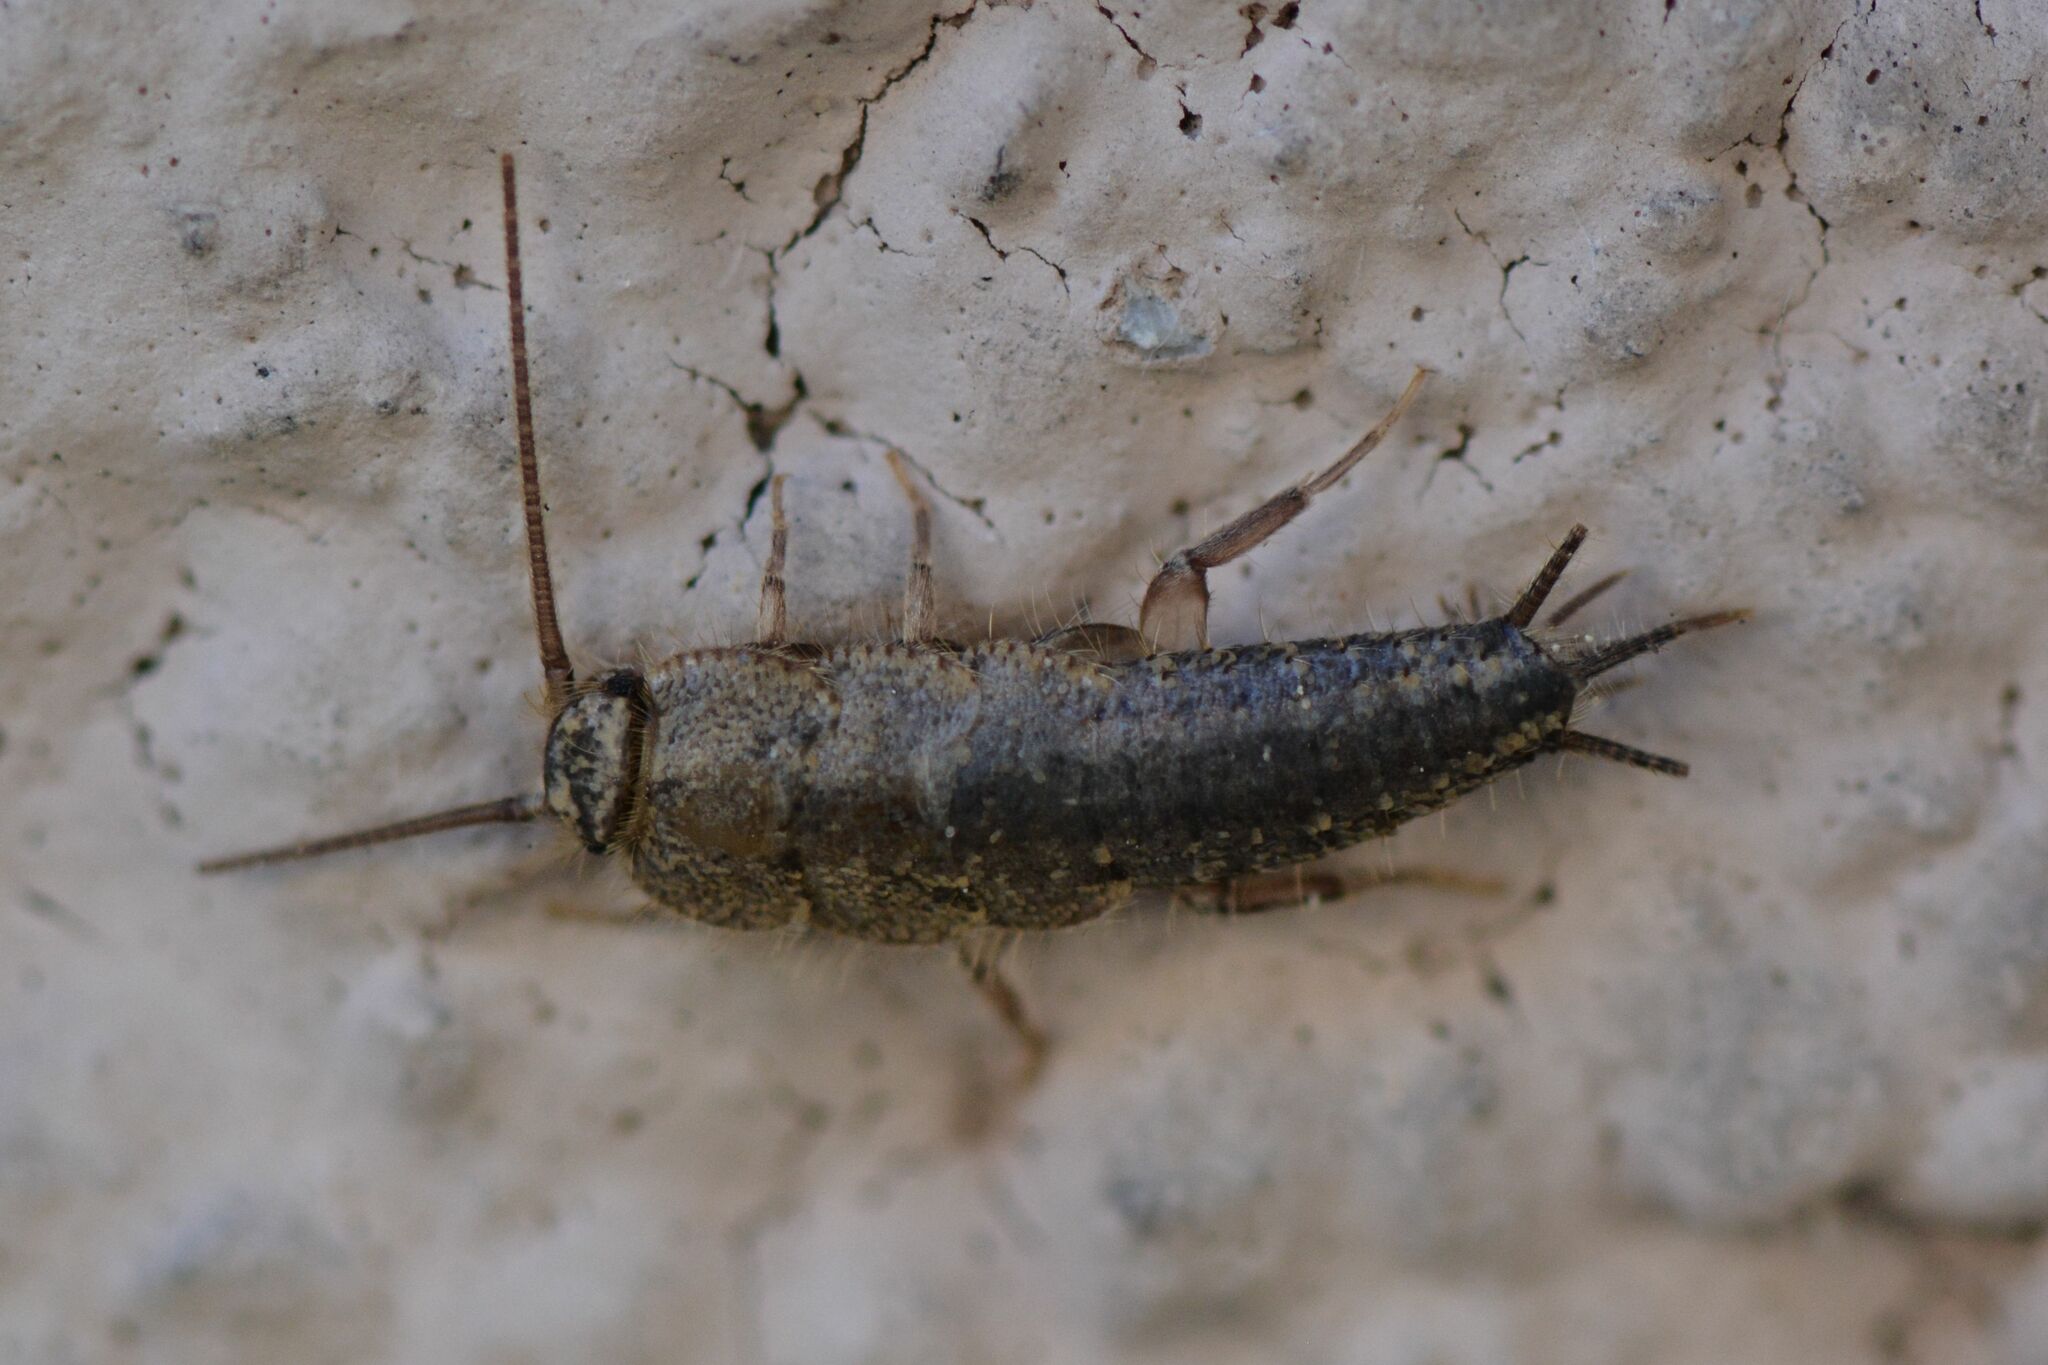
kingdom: Animalia
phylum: Arthropoda
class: Insecta
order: Zygentoma
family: Lepismatidae
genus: Ctenolepisma
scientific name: Ctenolepisma lineata
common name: Four-lined silverfish
